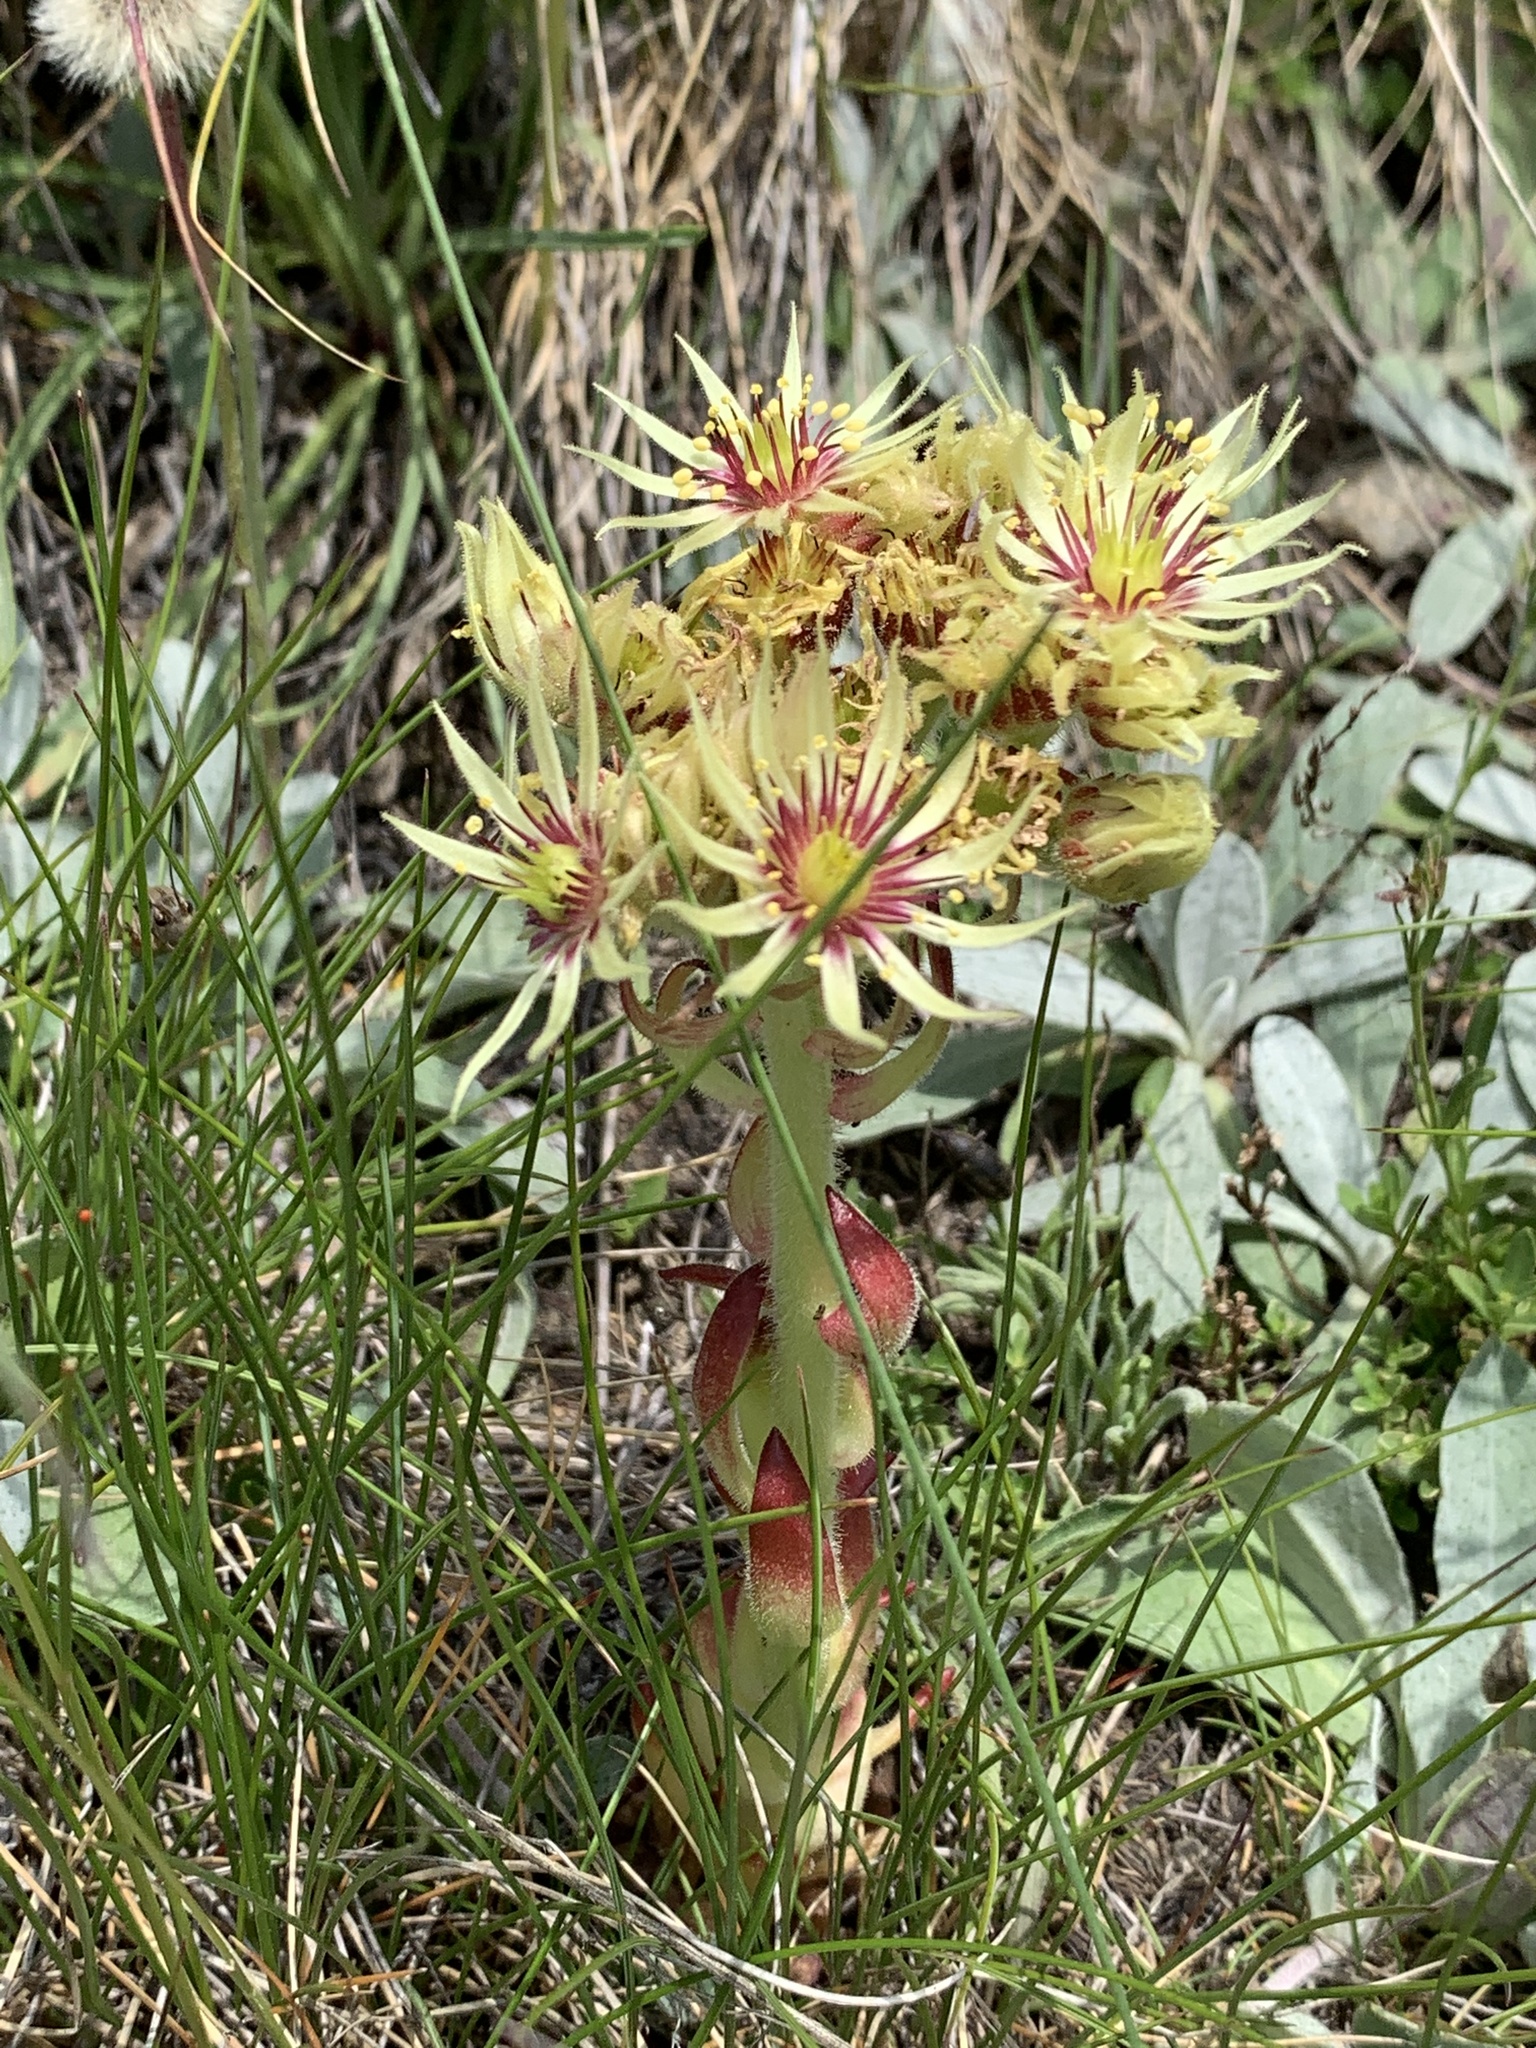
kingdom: Plantae
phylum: Tracheophyta
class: Magnoliopsida
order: Saxifragales
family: Crassulaceae
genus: Sempervivum
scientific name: Sempervivum grandiflorum
